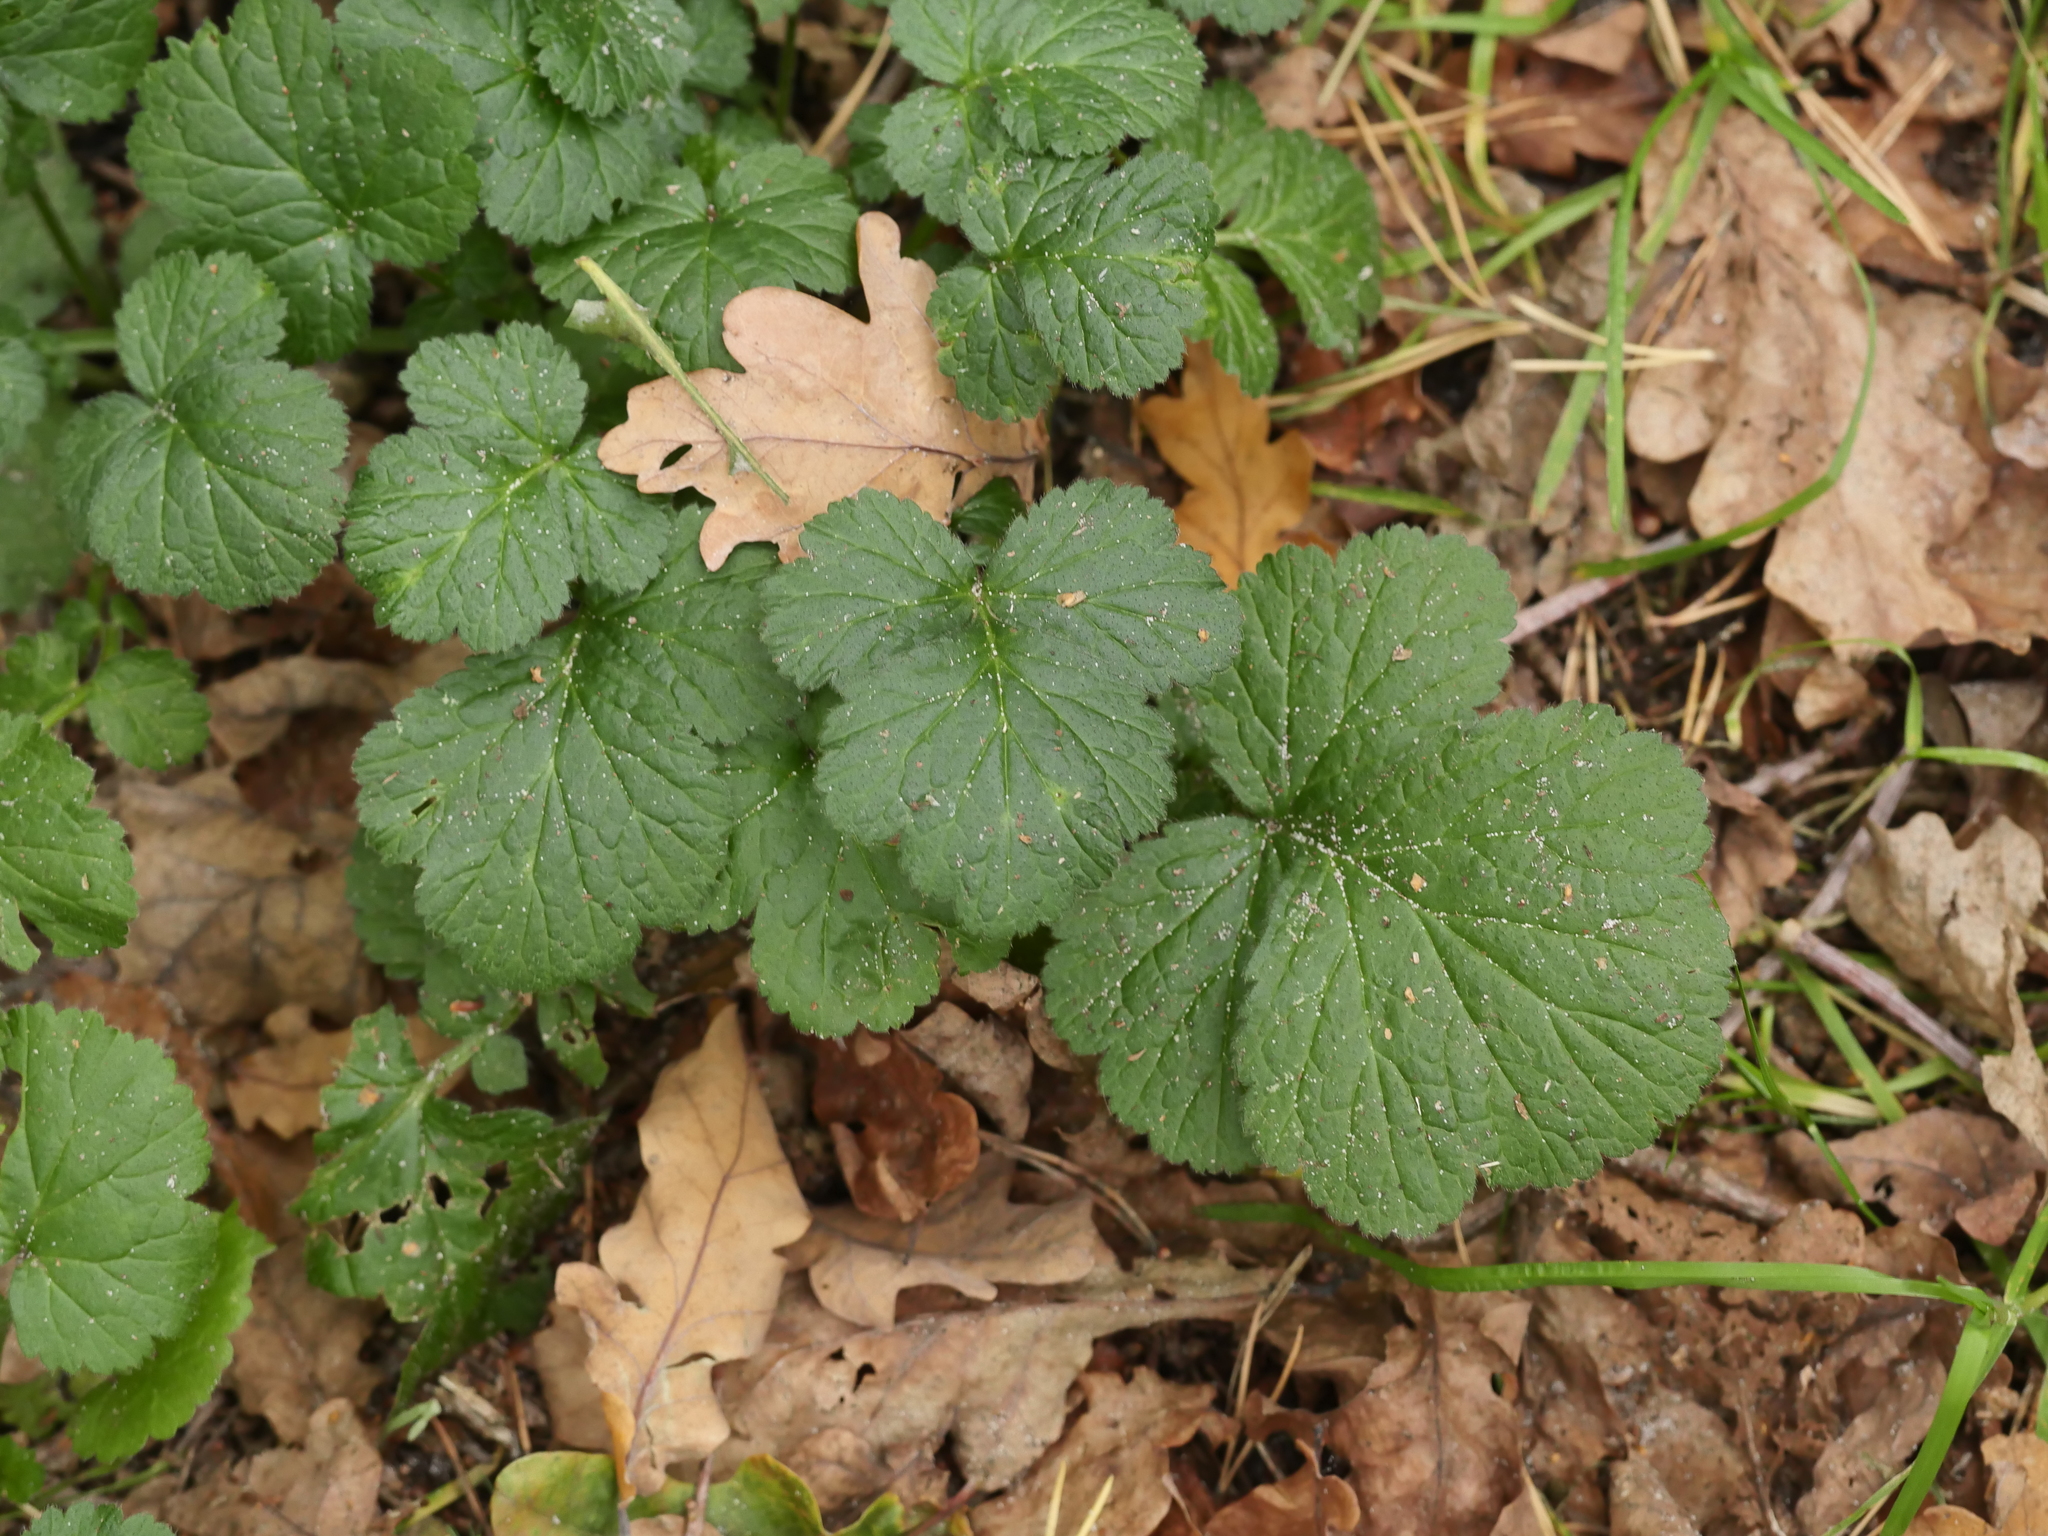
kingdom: Plantae
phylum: Tracheophyta
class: Magnoliopsida
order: Rosales
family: Rosaceae
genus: Geum
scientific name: Geum urbanum
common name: Wood avens
